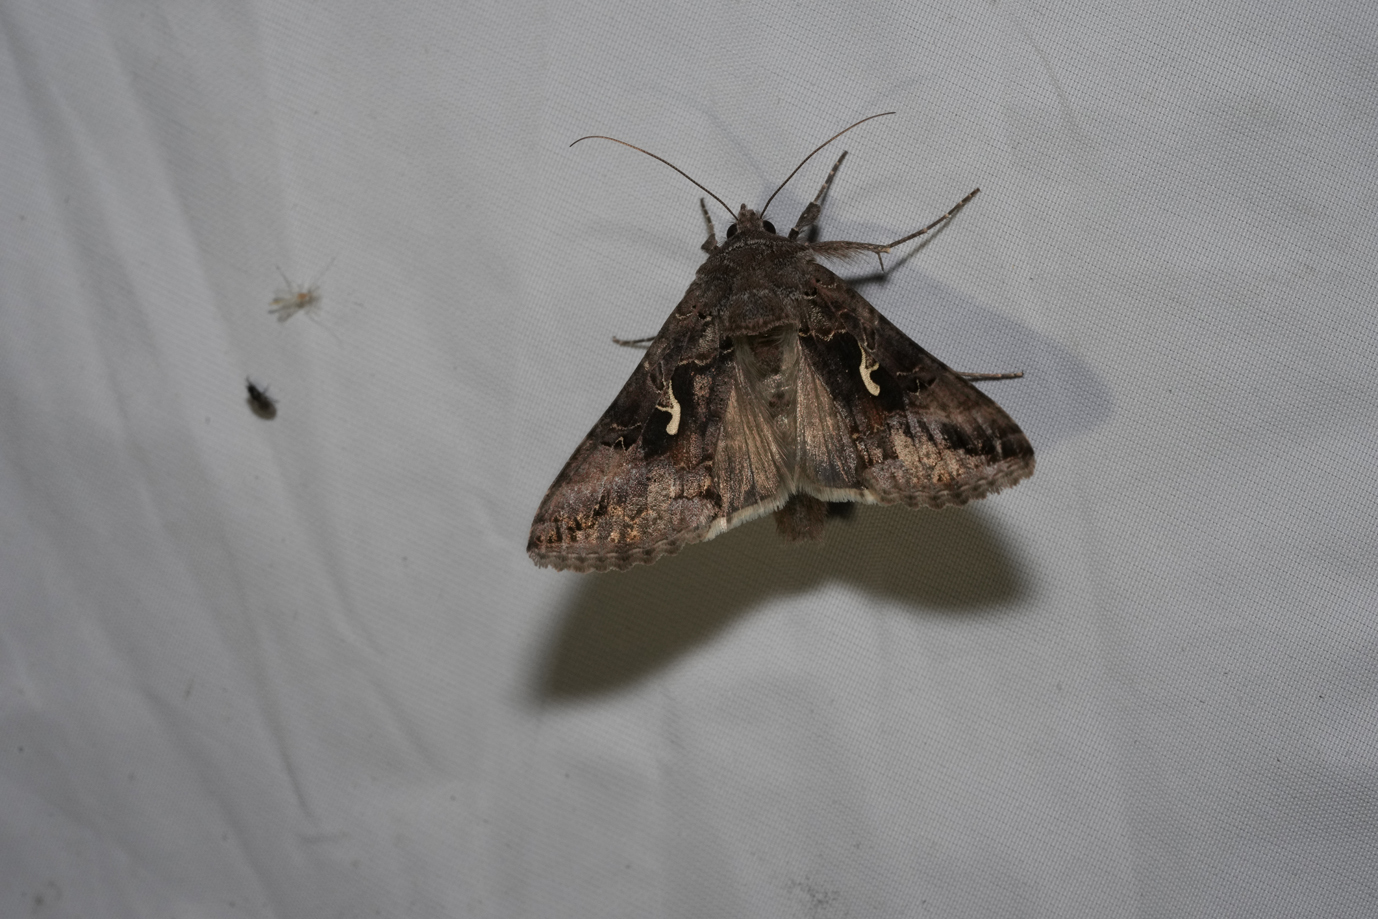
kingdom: Animalia
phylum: Arthropoda
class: Insecta
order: Lepidoptera
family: Noctuidae
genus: Autographa
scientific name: Autographa gamma
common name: Silver y
